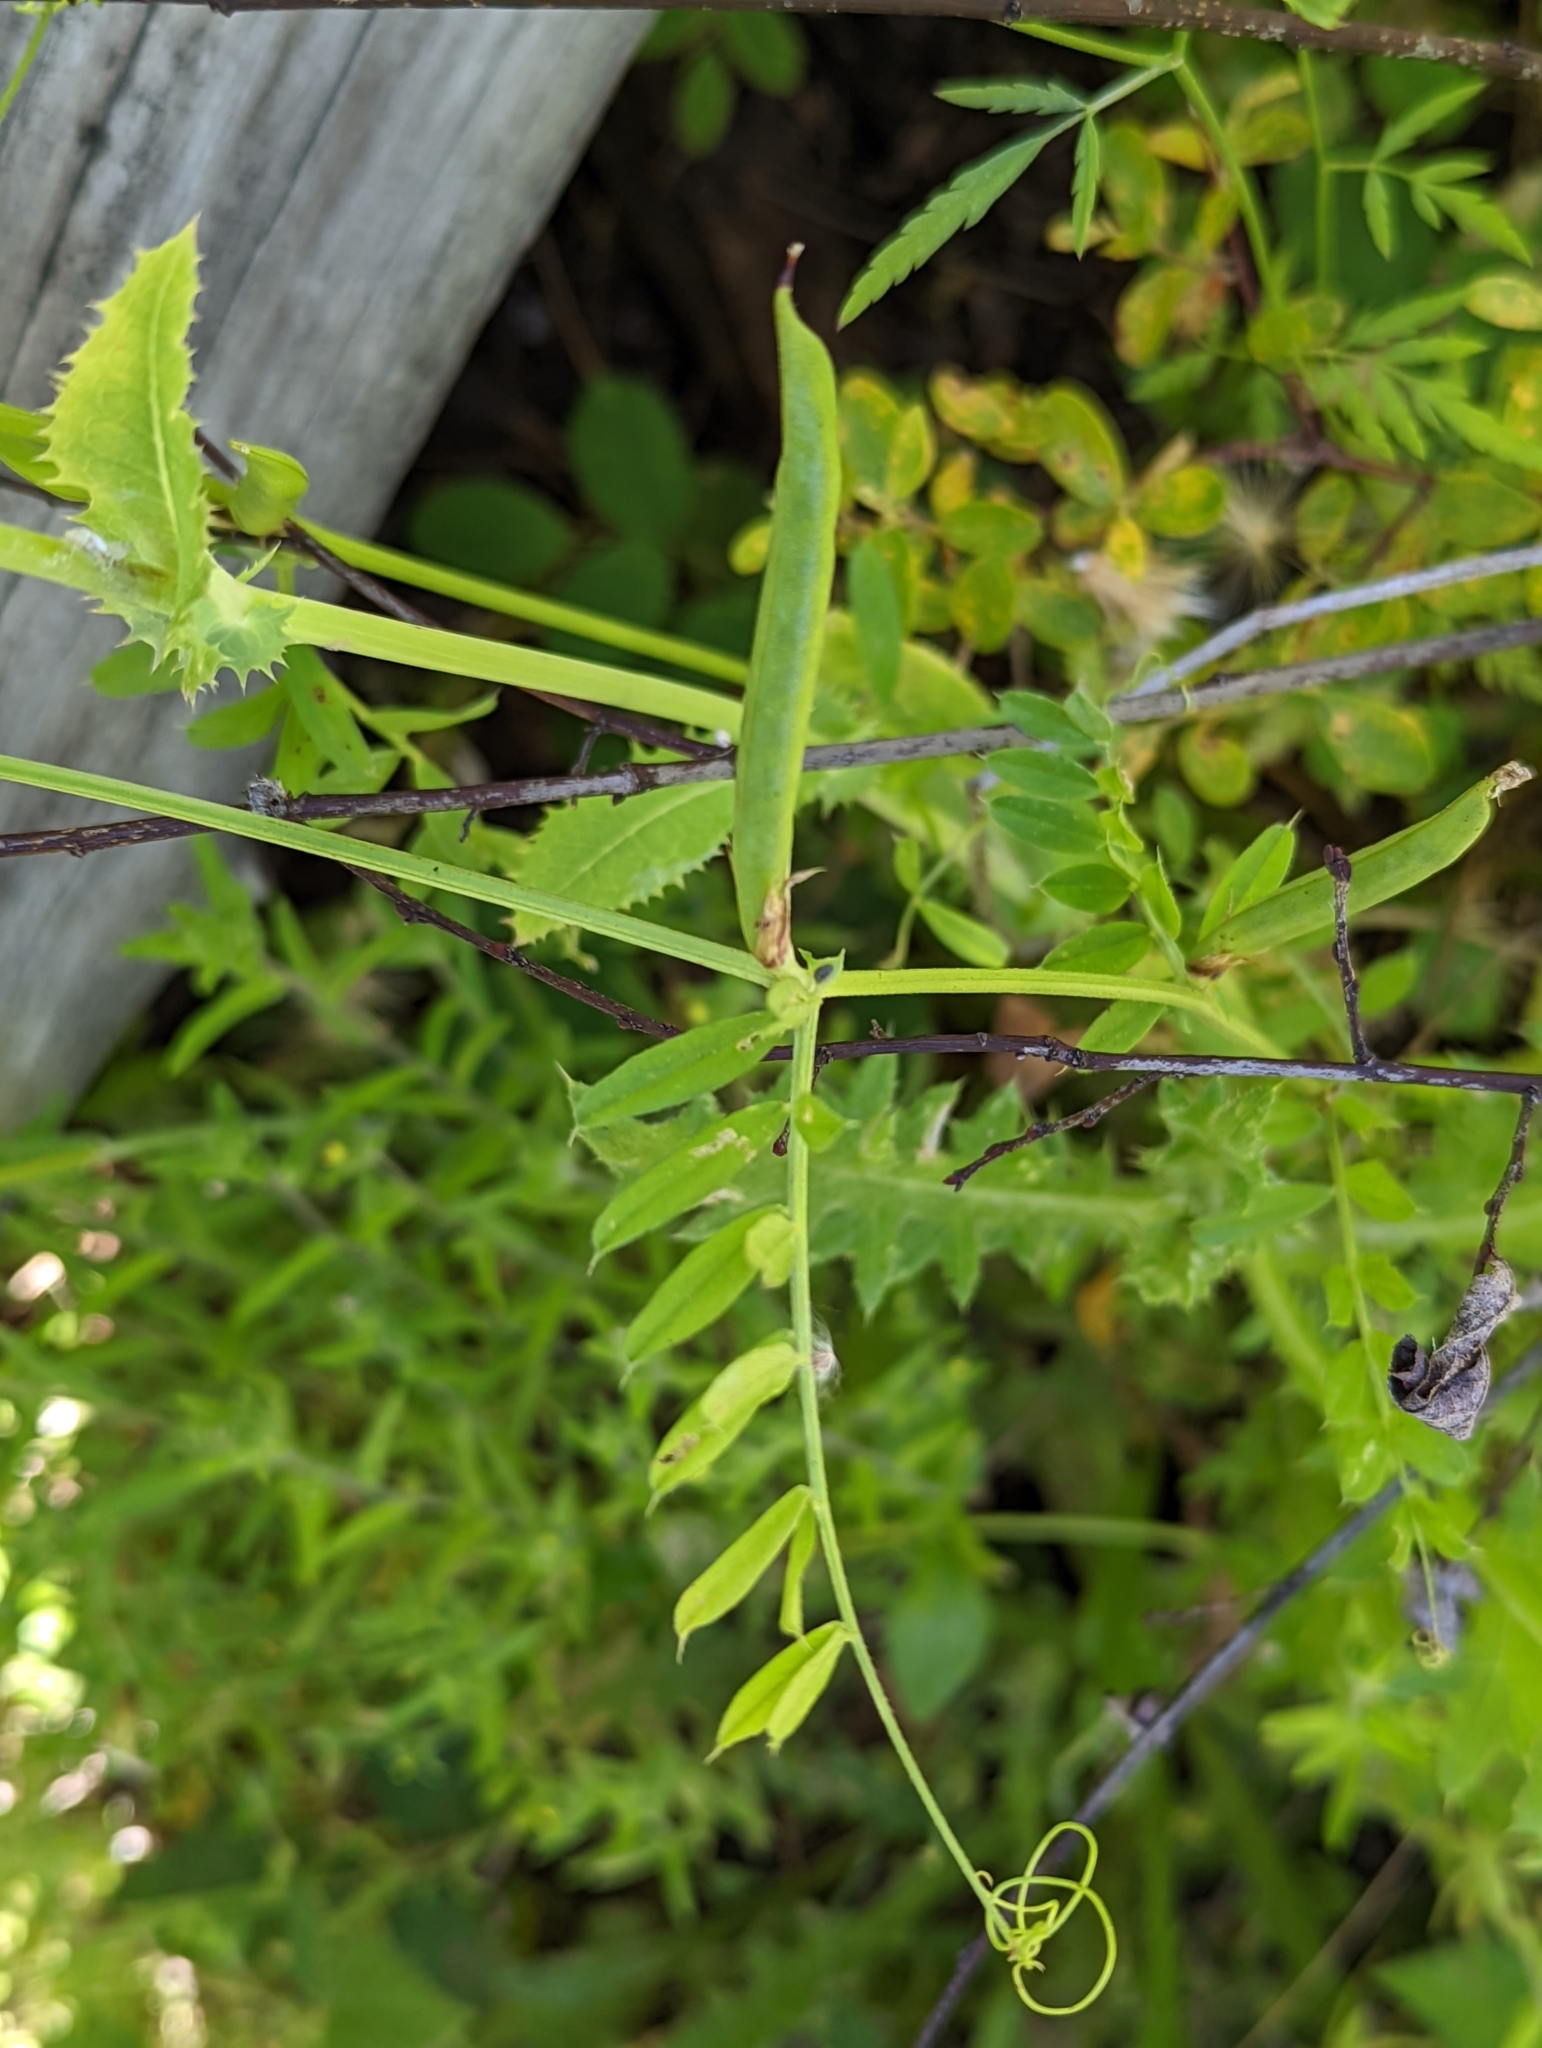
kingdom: Plantae
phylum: Tracheophyta
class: Magnoliopsida
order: Fabales
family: Fabaceae
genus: Vicia
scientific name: Vicia sativa
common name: Garden vetch
